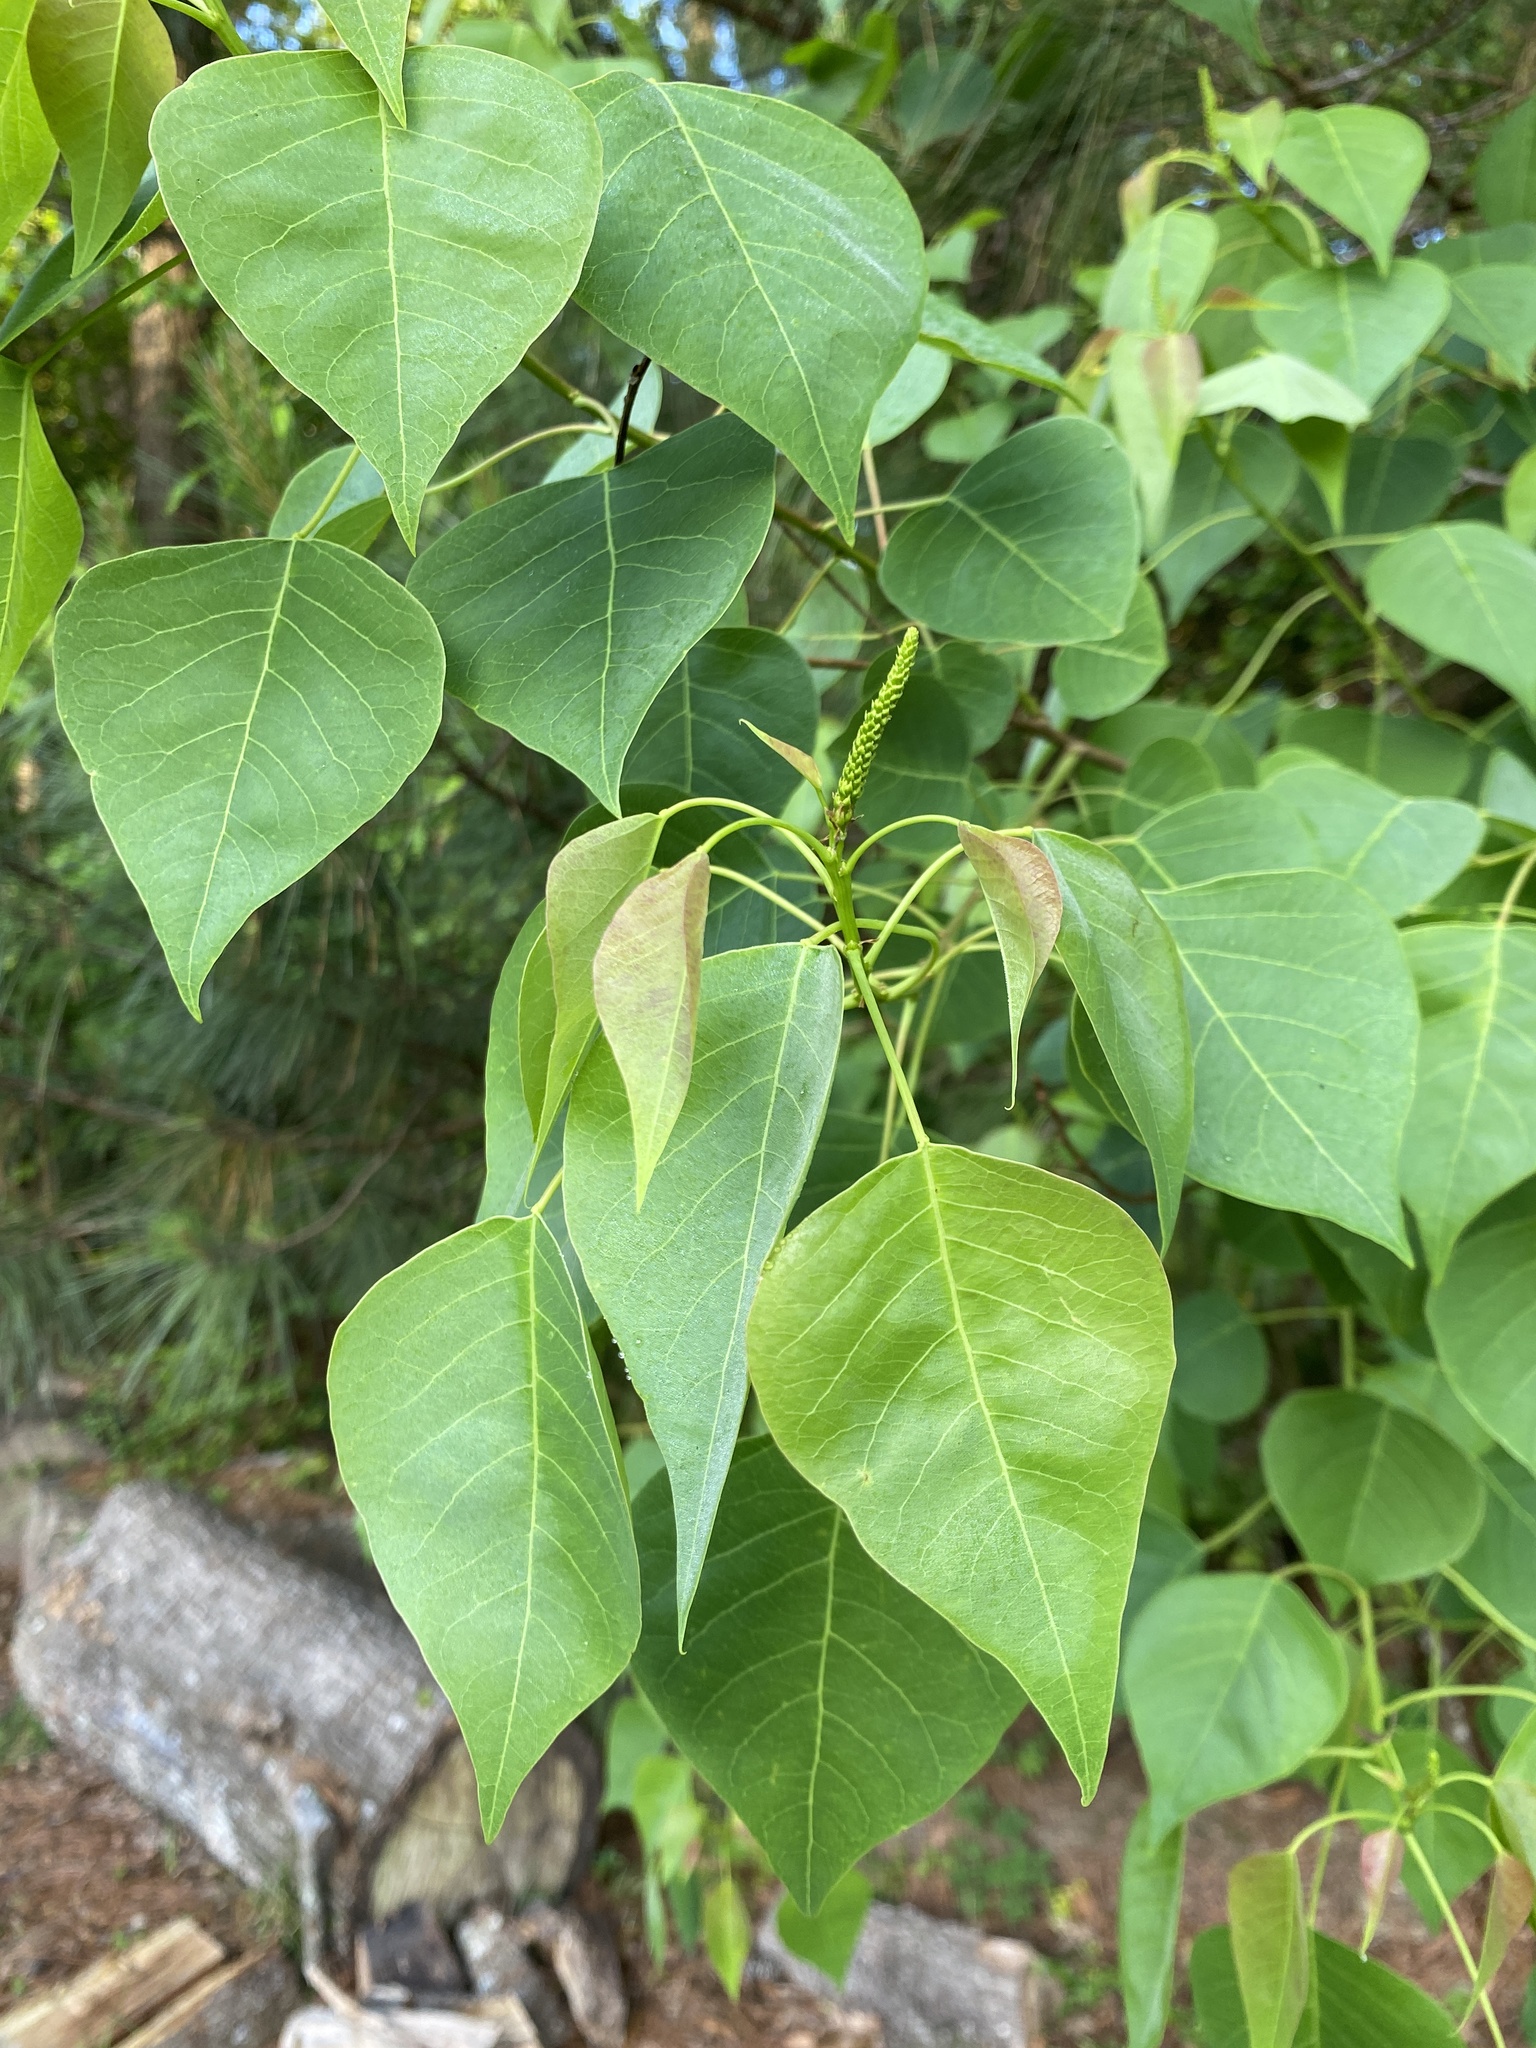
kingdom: Plantae
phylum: Tracheophyta
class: Magnoliopsida
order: Malpighiales
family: Euphorbiaceae
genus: Triadica
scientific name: Triadica sebifera
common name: Chinese tallow
